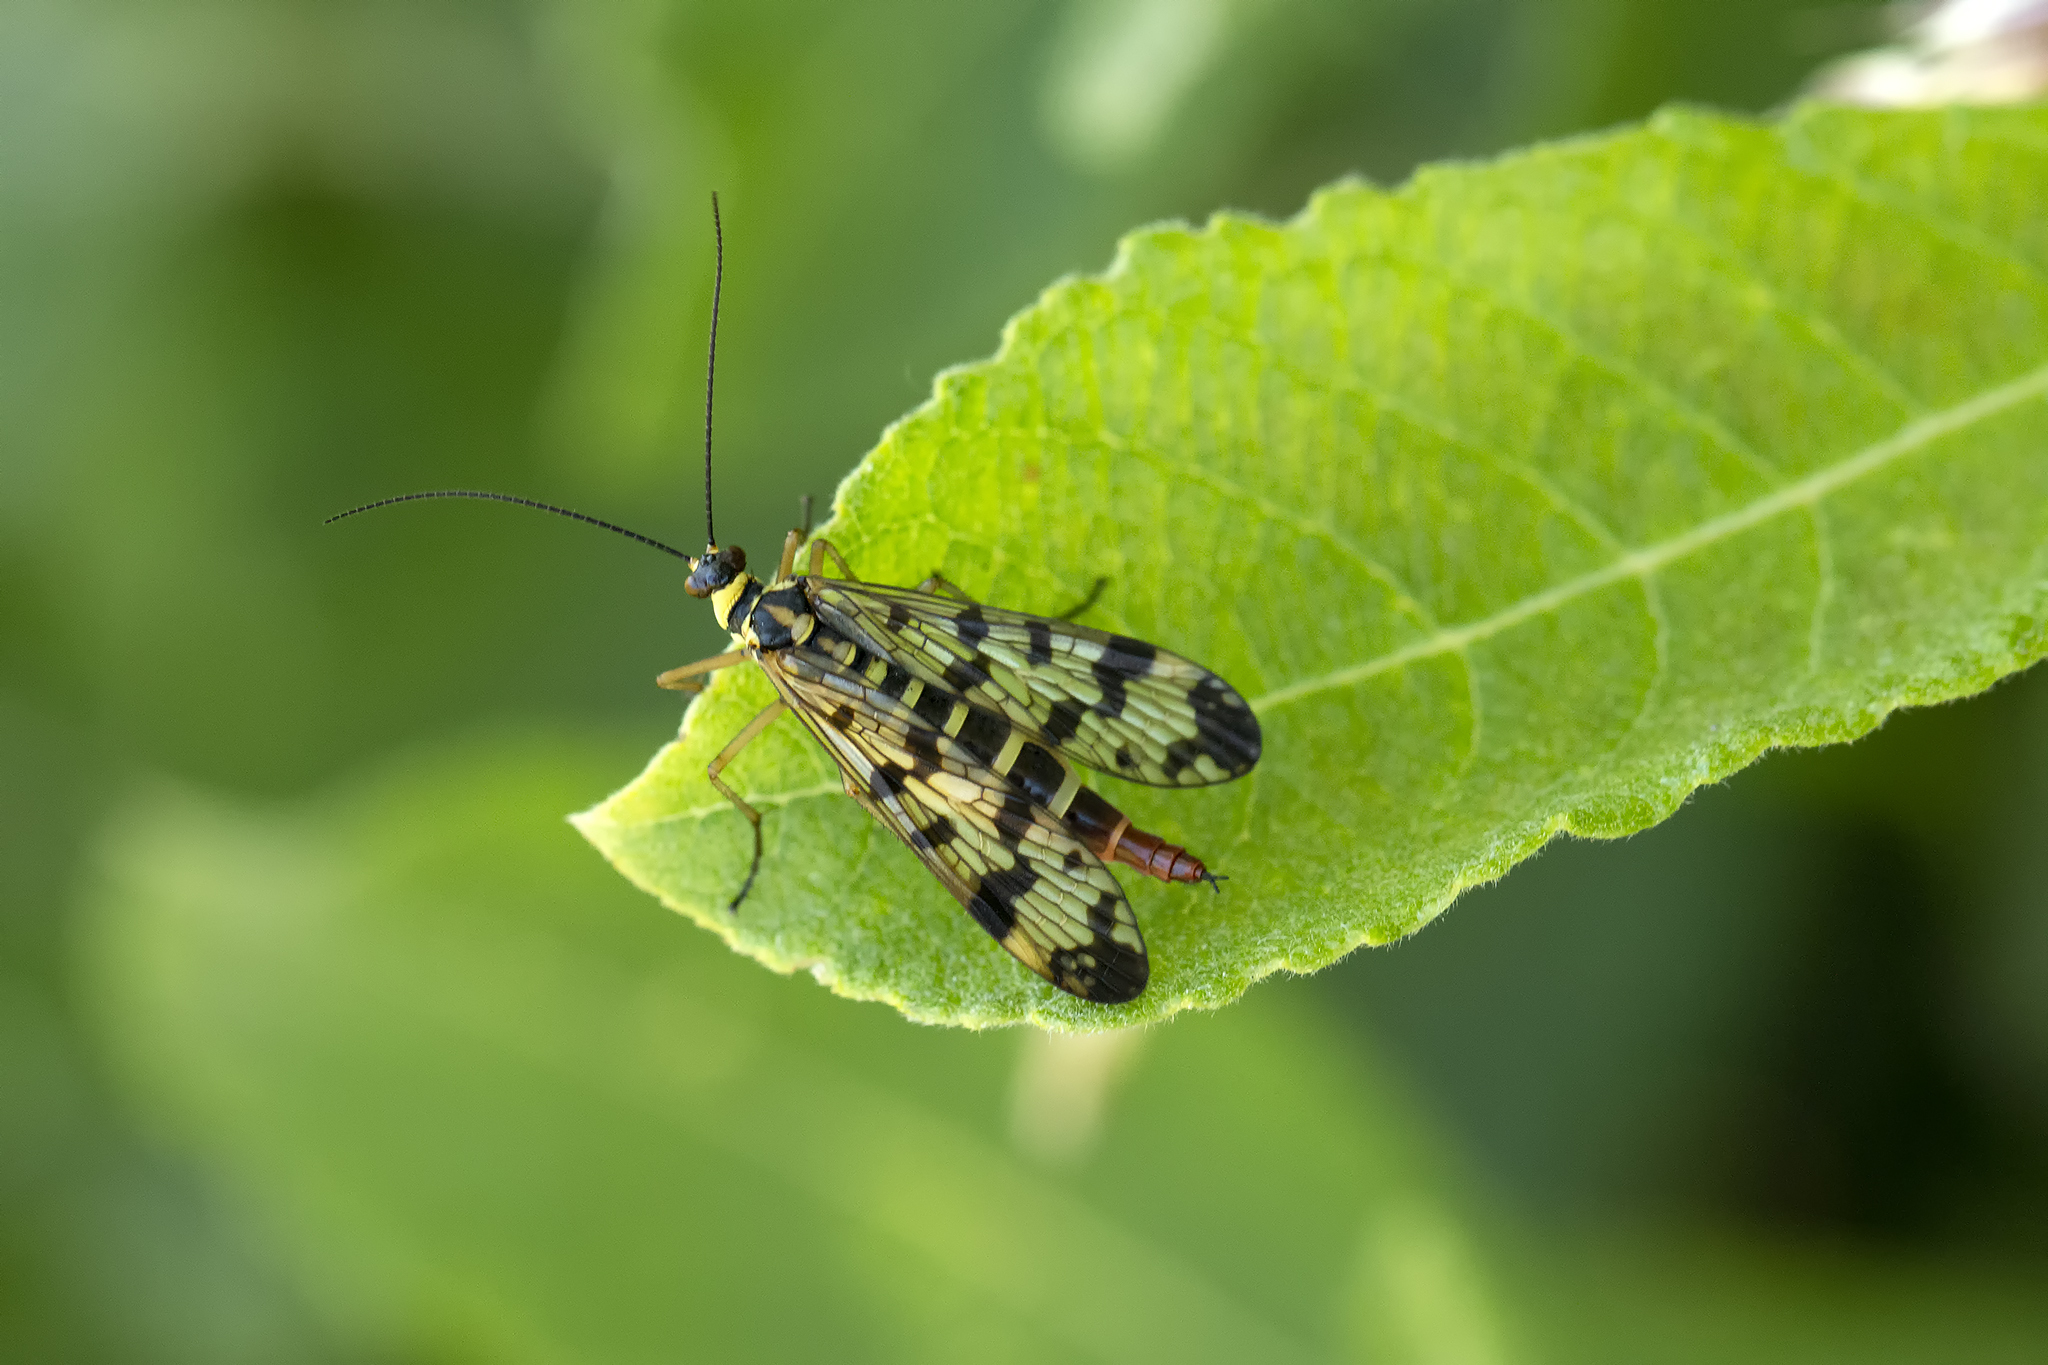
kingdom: Animalia
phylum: Arthropoda
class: Insecta
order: Mecoptera
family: Panorpidae
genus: Panorpa
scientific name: Panorpa communis
